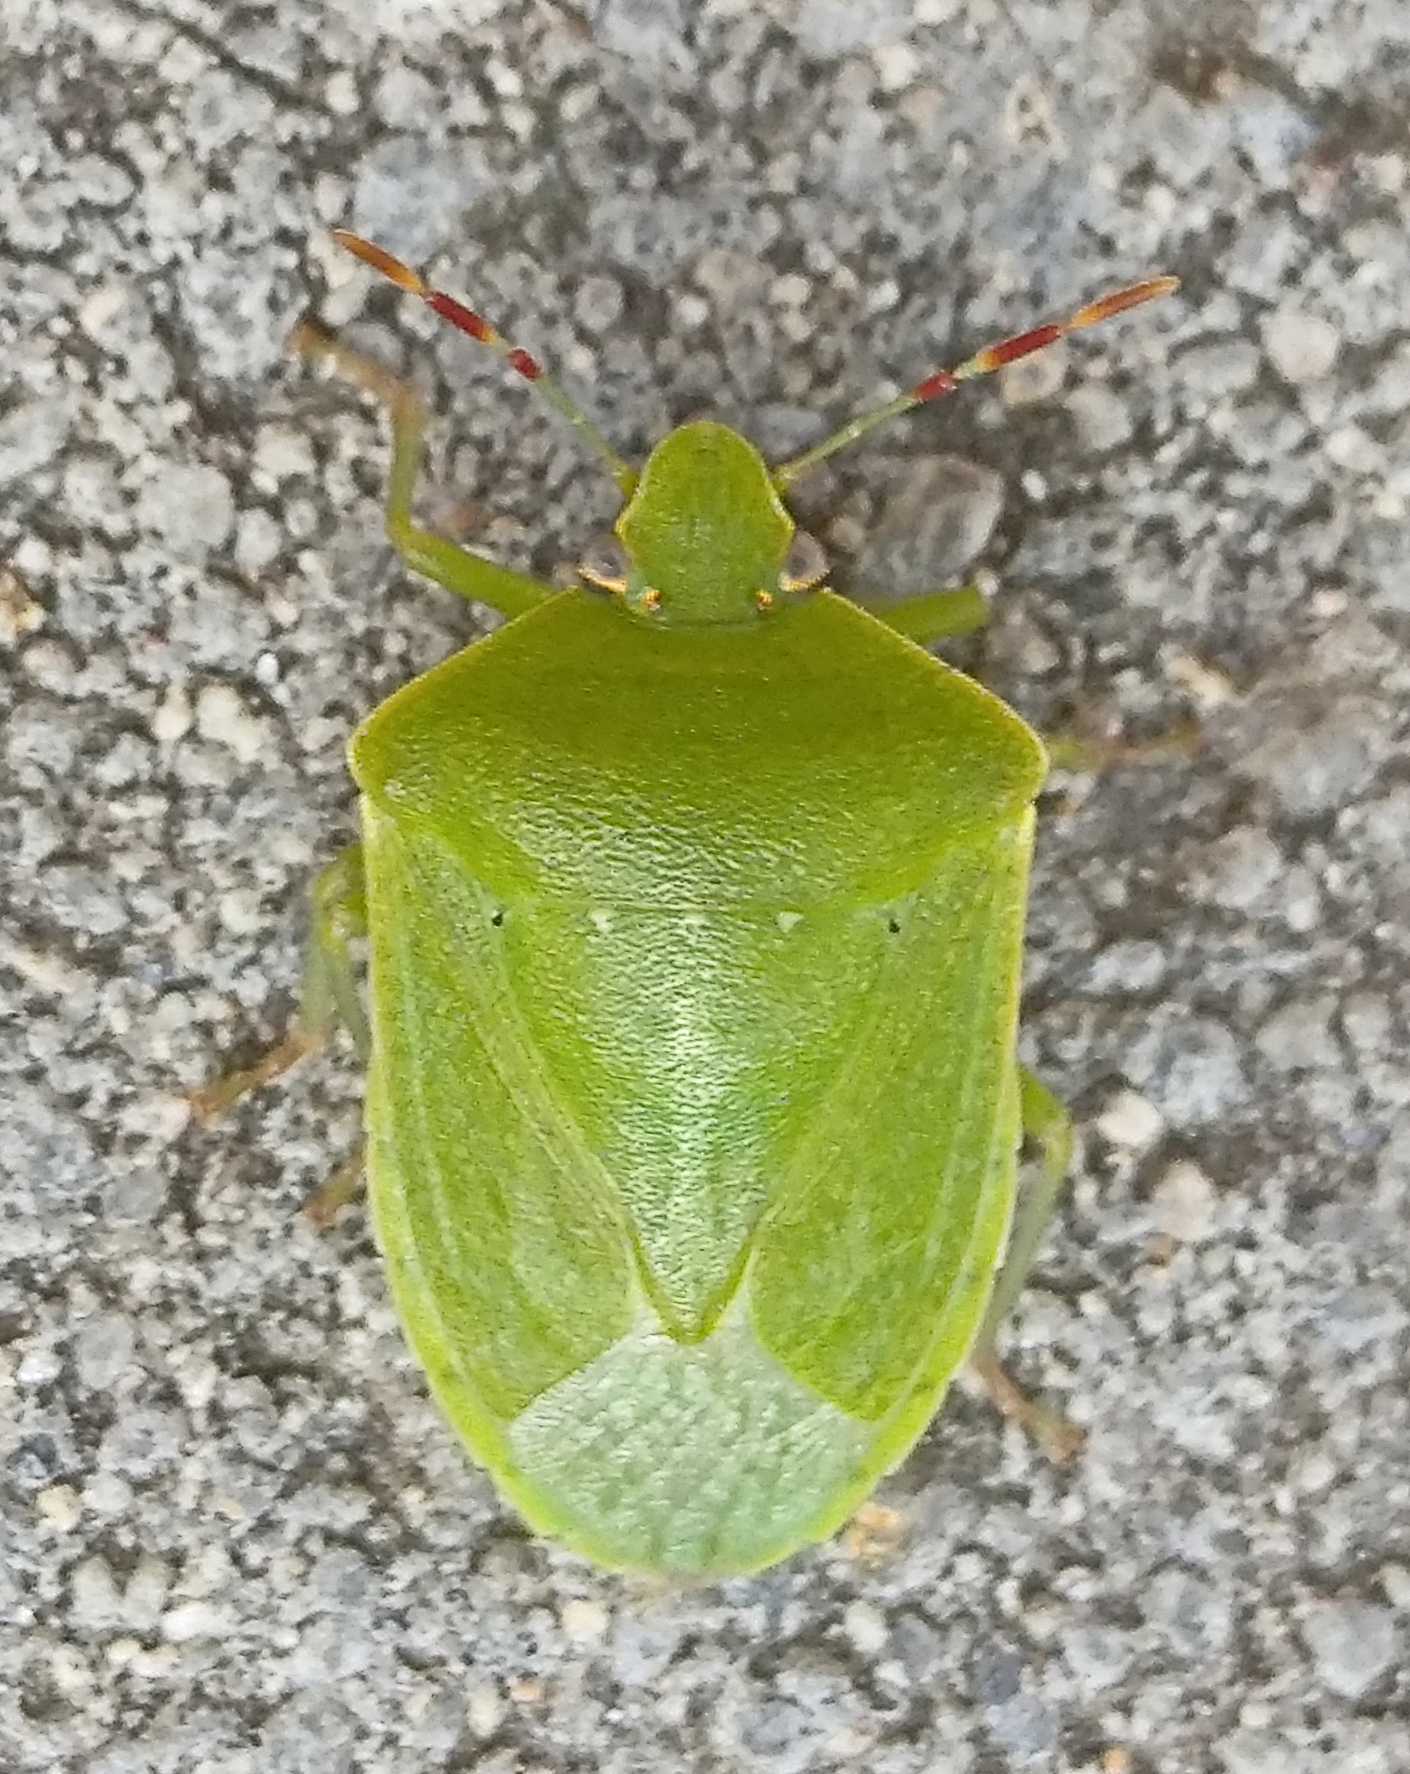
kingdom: Animalia
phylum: Arthropoda
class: Insecta
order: Hemiptera
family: Pentatomidae
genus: Nezara
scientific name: Nezara viridula
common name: Southern green stink bug
